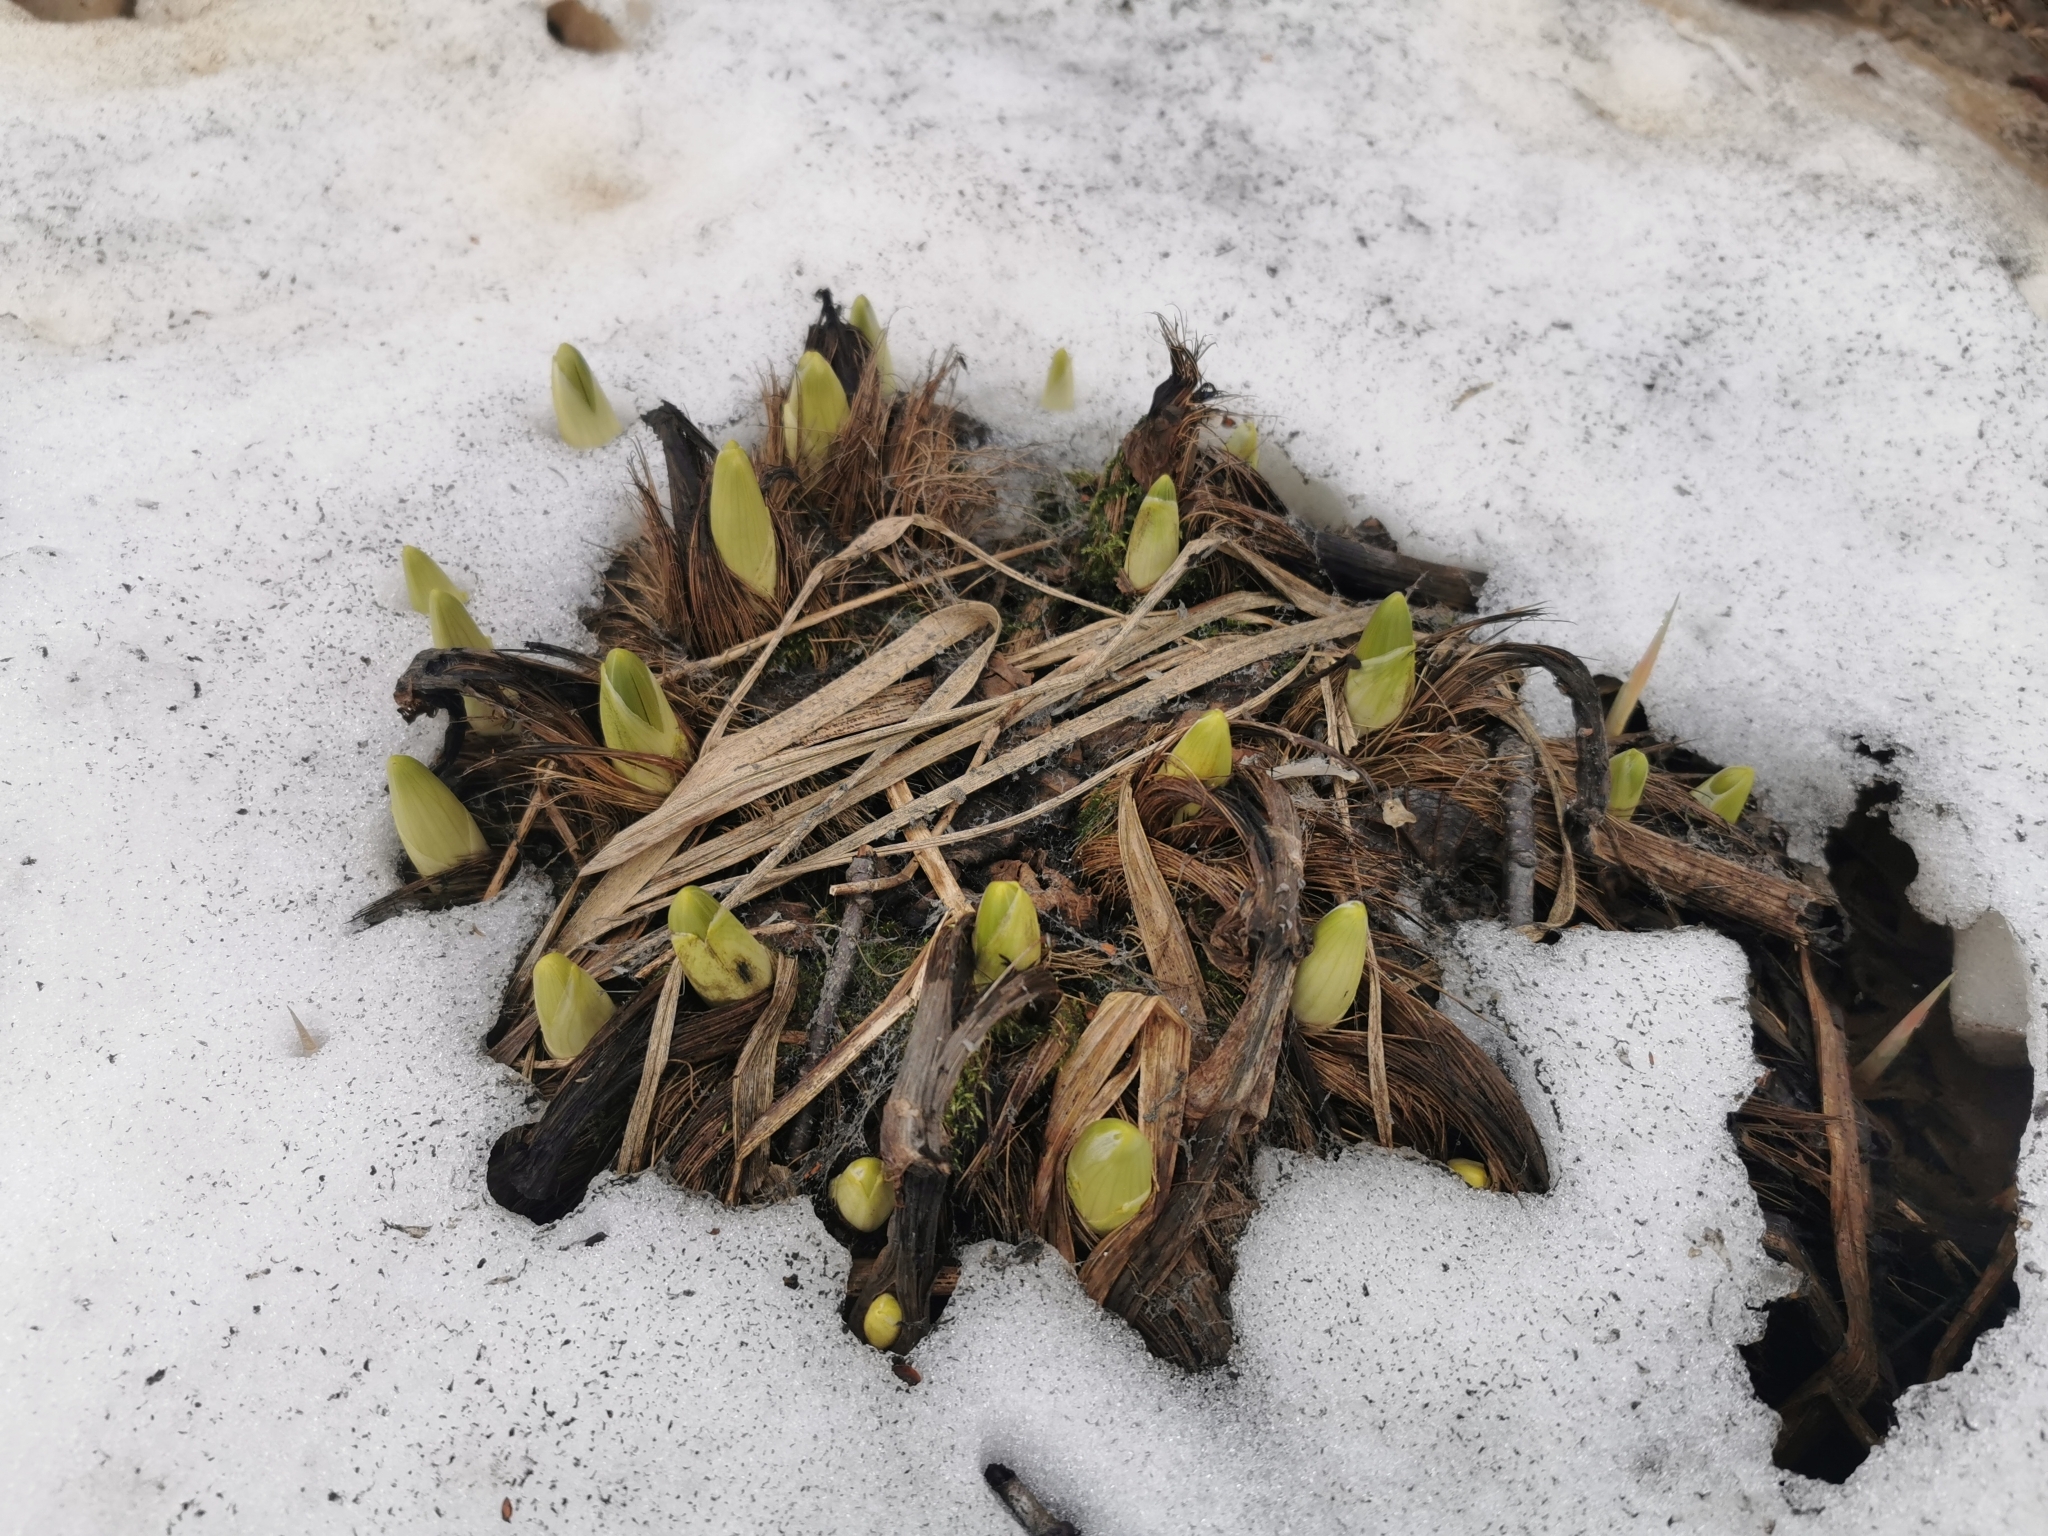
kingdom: Plantae
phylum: Tracheophyta
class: Liliopsida
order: Liliales
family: Melanthiaceae
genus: Veratrum
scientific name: Veratrum oxysepalum
